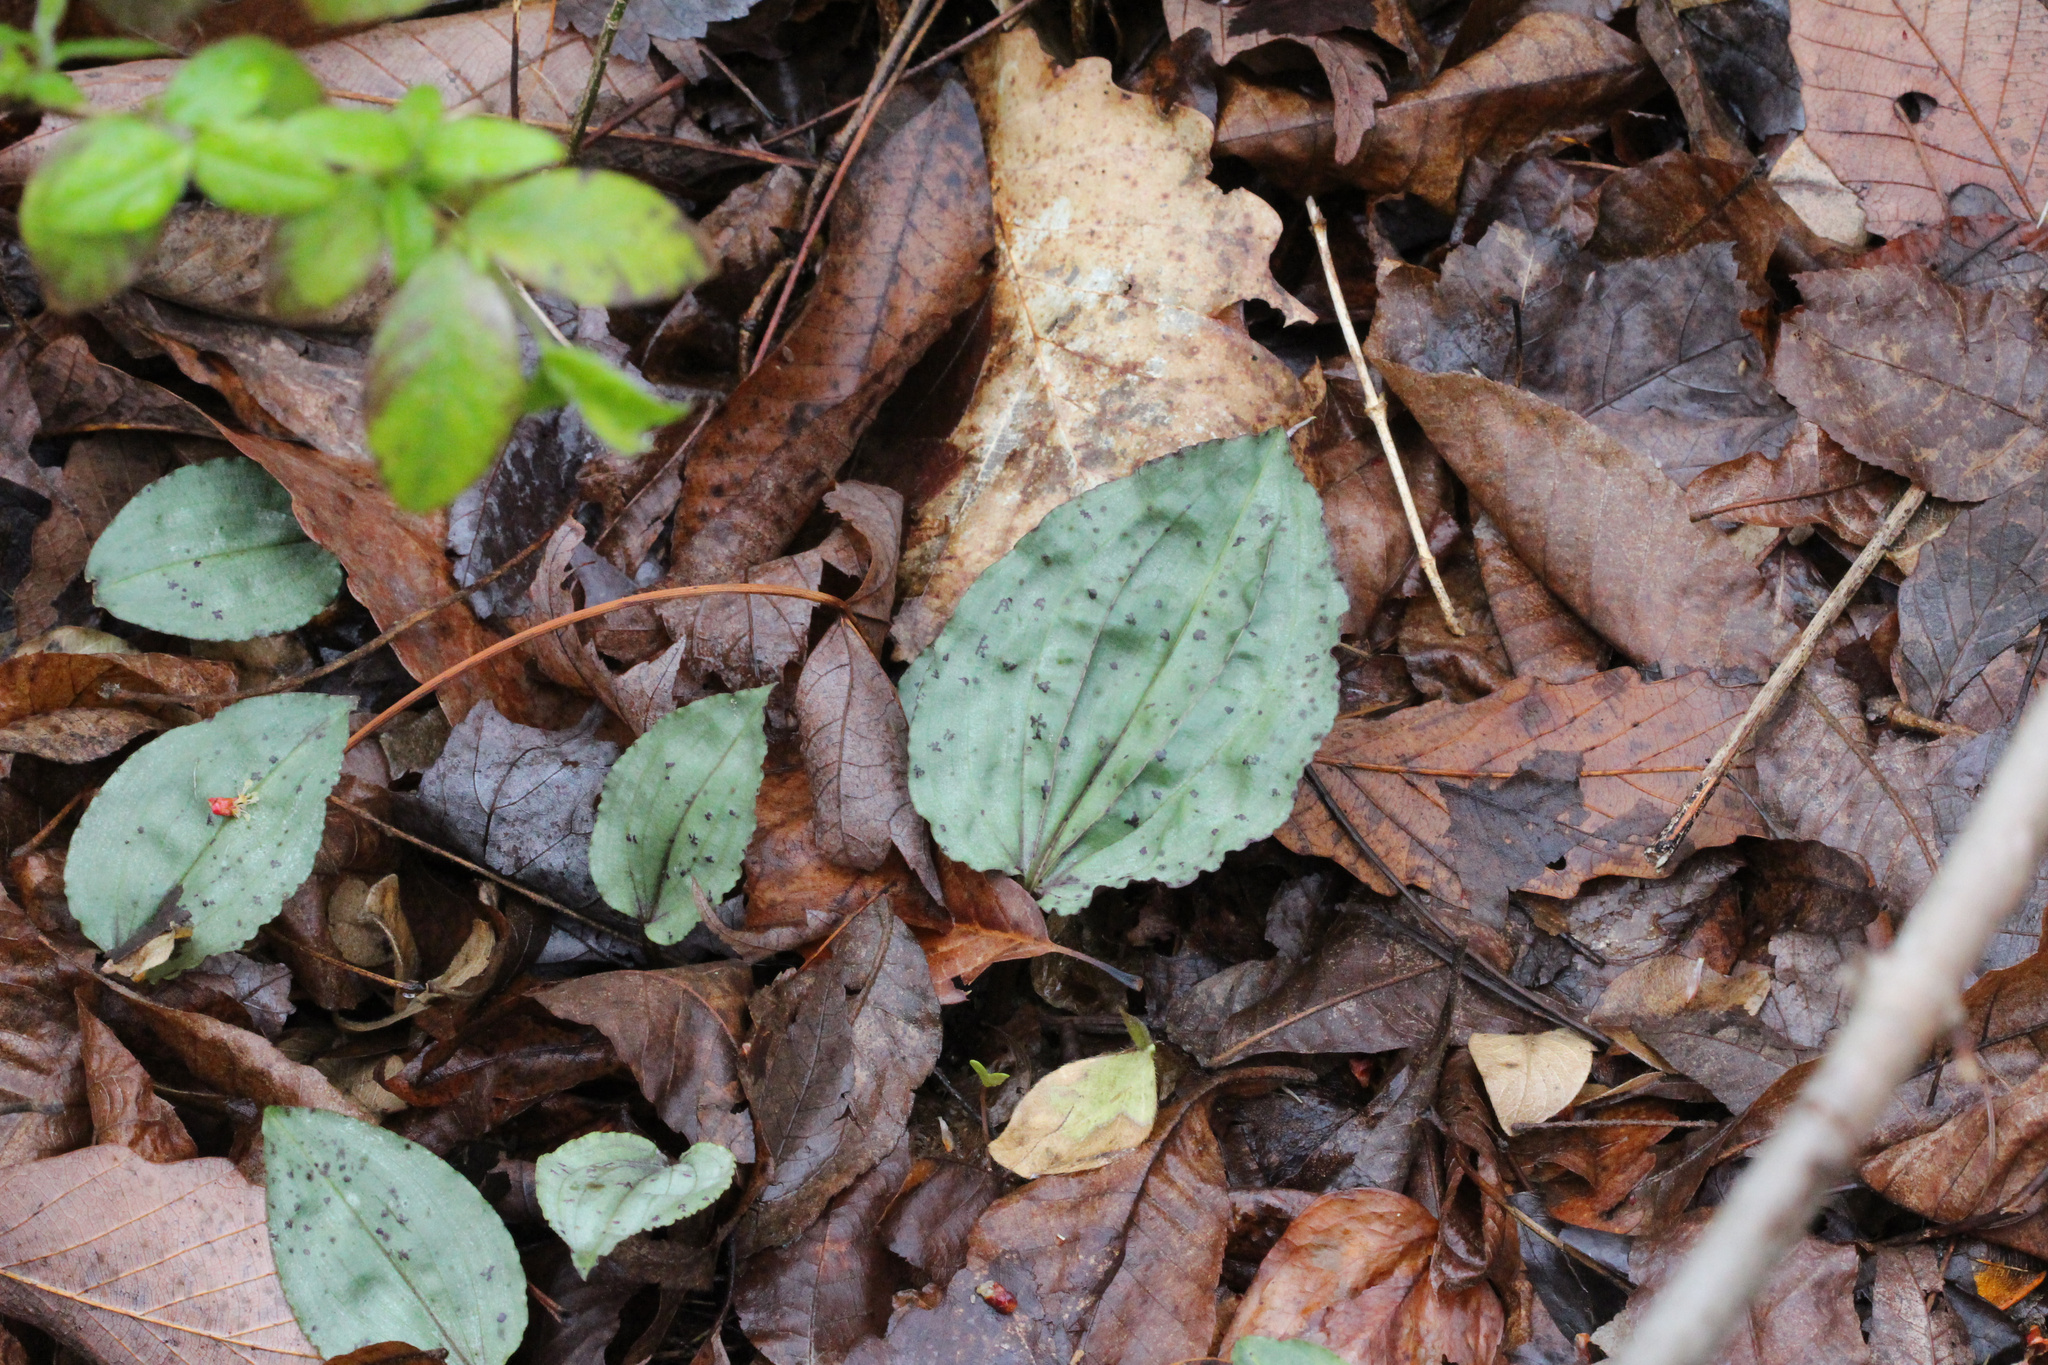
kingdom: Plantae
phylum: Tracheophyta
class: Liliopsida
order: Asparagales
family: Orchidaceae
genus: Tipularia
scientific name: Tipularia discolor
